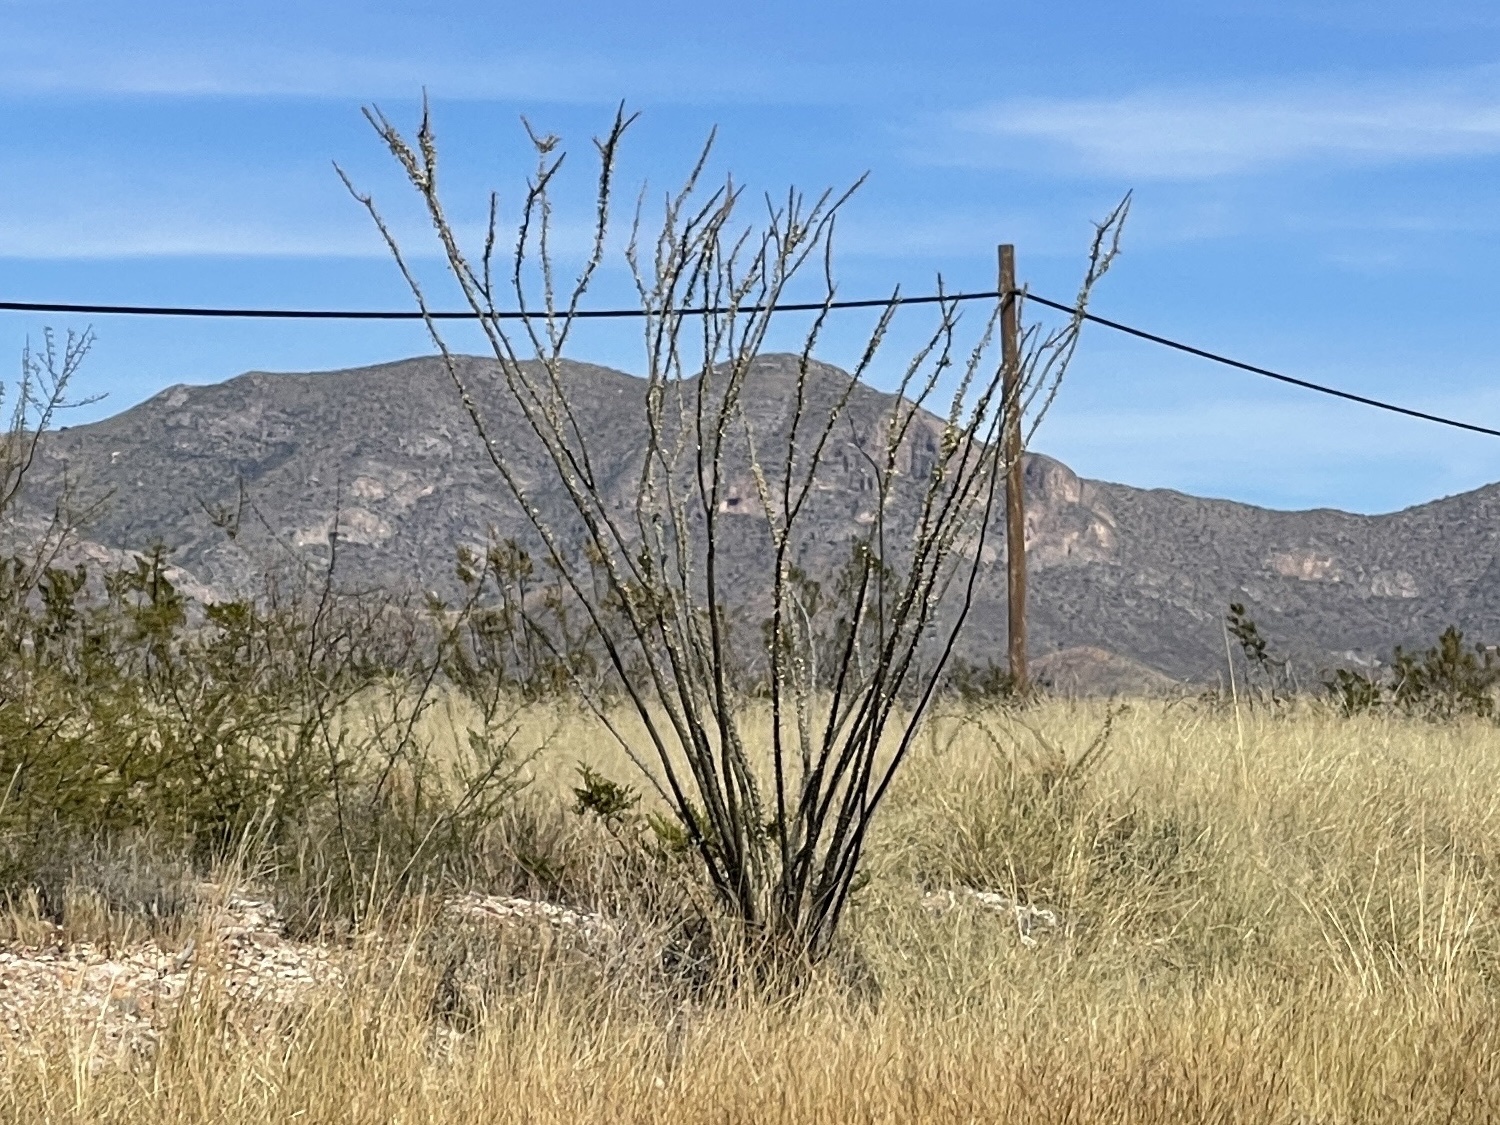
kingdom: Plantae
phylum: Tracheophyta
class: Magnoliopsida
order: Ericales
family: Fouquieriaceae
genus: Fouquieria
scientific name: Fouquieria splendens
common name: Vine-cactus
